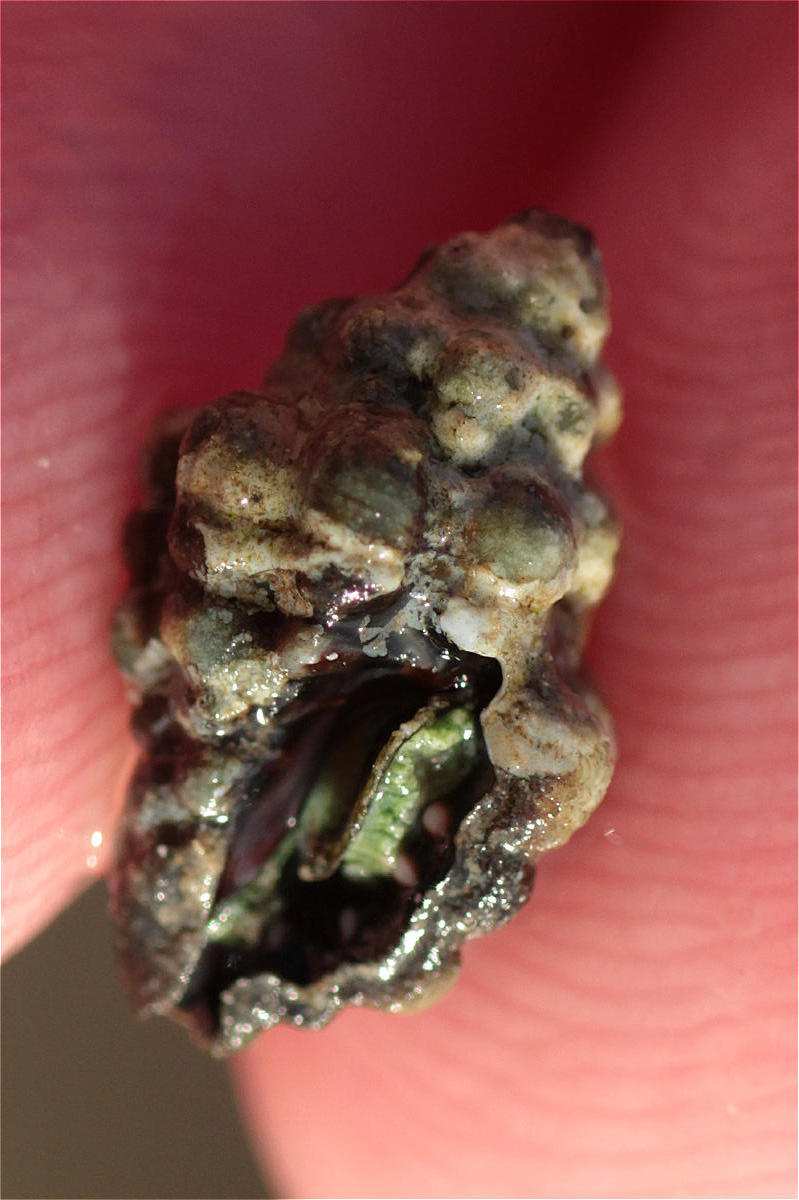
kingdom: Animalia
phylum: Mollusca
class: Gastropoda
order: Neogastropoda
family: Muricidae
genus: Drupella
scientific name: Drupella margariticola
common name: Shouldered castor bean
